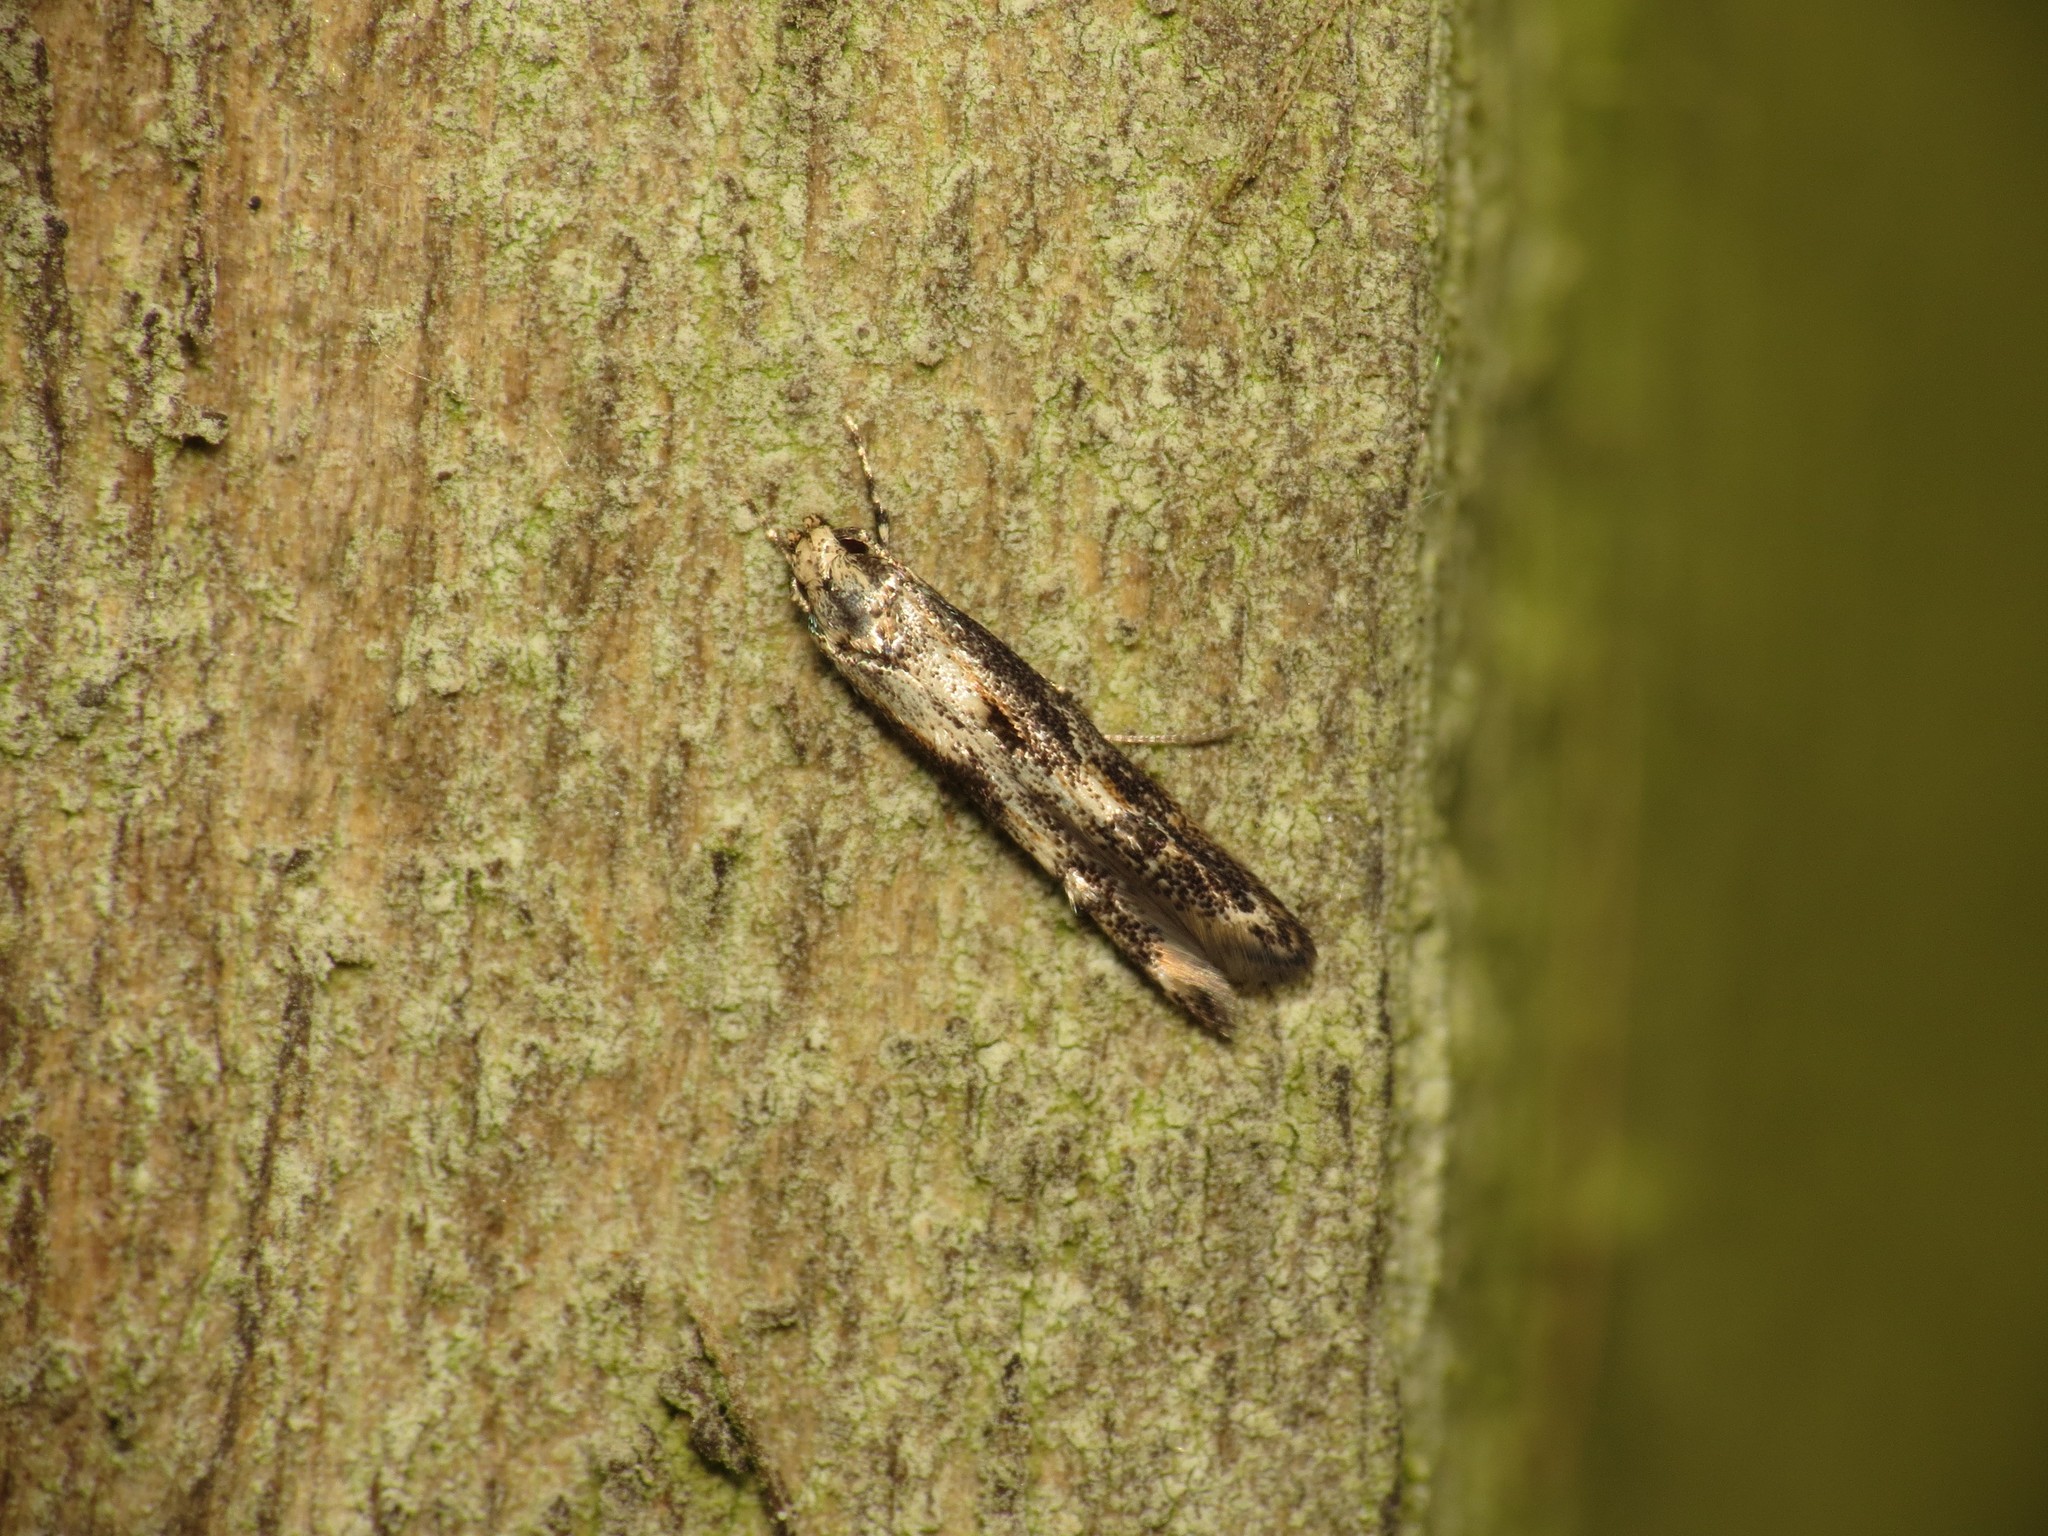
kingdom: Animalia
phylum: Arthropoda
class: Insecta
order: Lepidoptera
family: Elachistidae
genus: Blastodacna
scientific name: Blastodacna atra
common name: Apple pith moth
